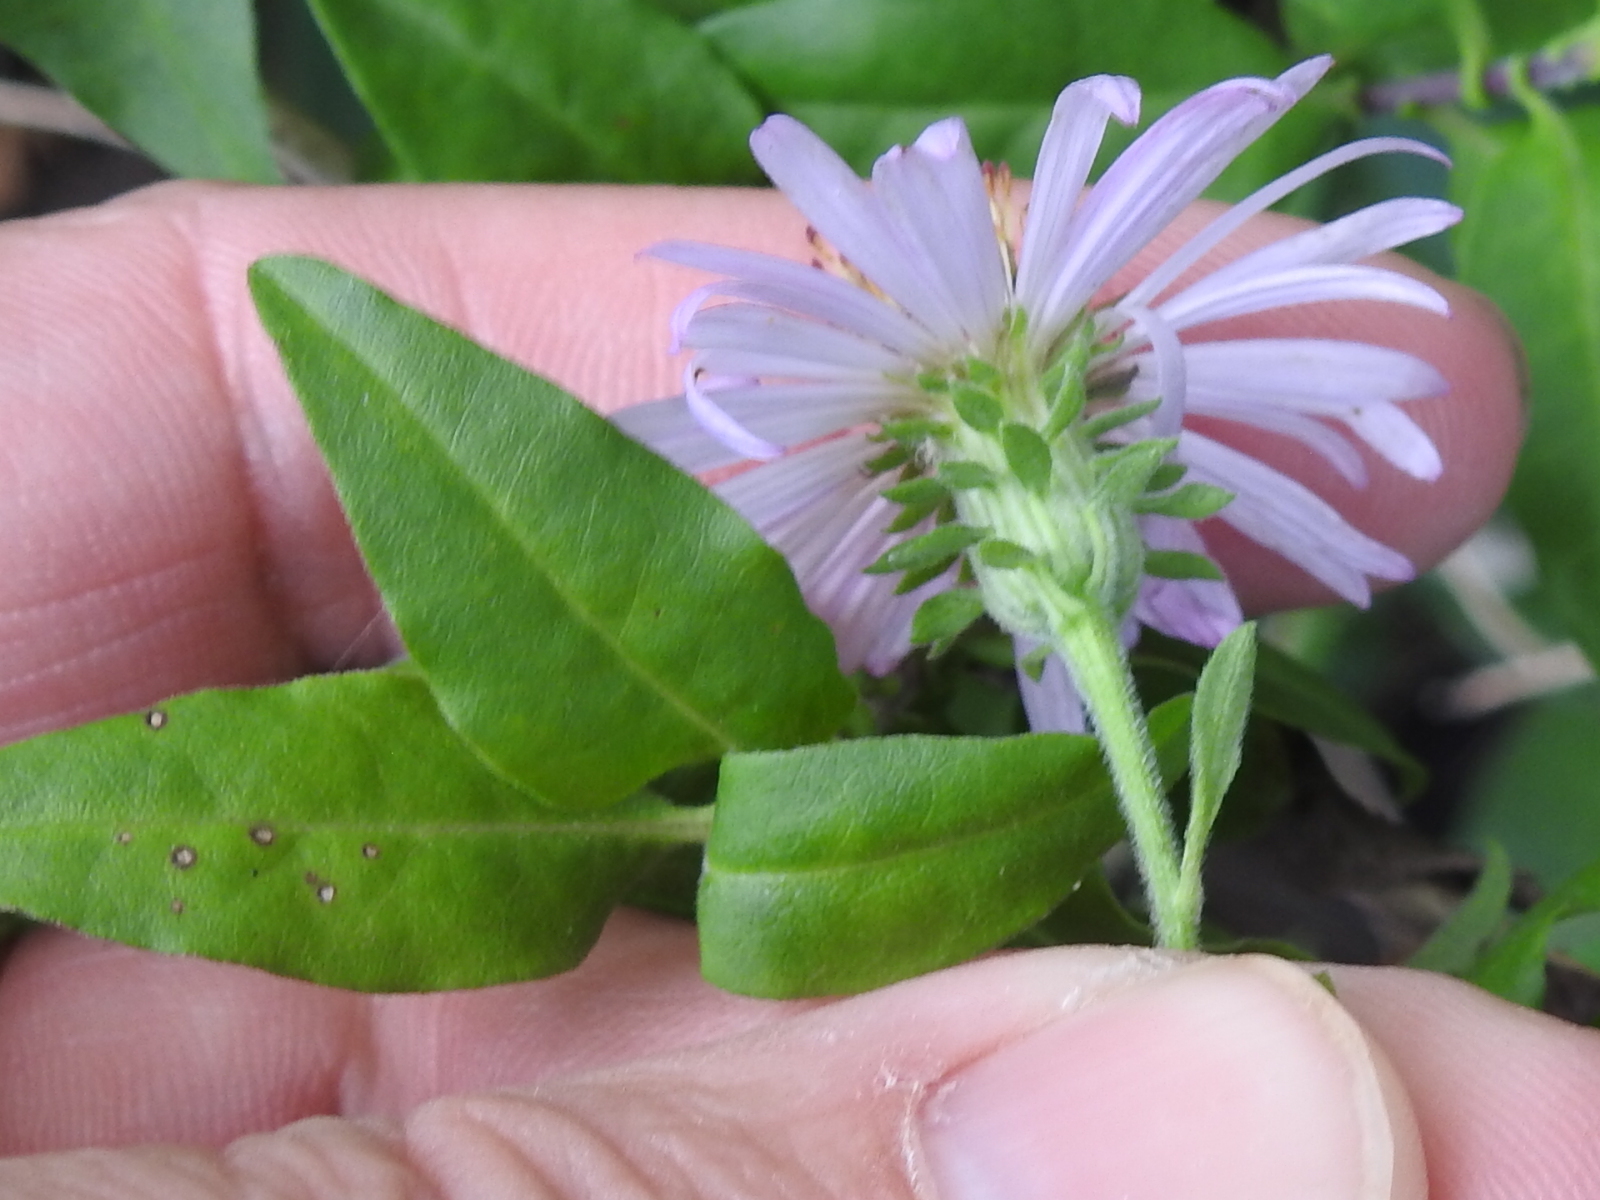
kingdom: Plantae
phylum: Tracheophyta
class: Magnoliopsida
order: Asterales
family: Asteraceae
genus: Ampelaster
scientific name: Ampelaster carolinianus
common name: Climbing aster
